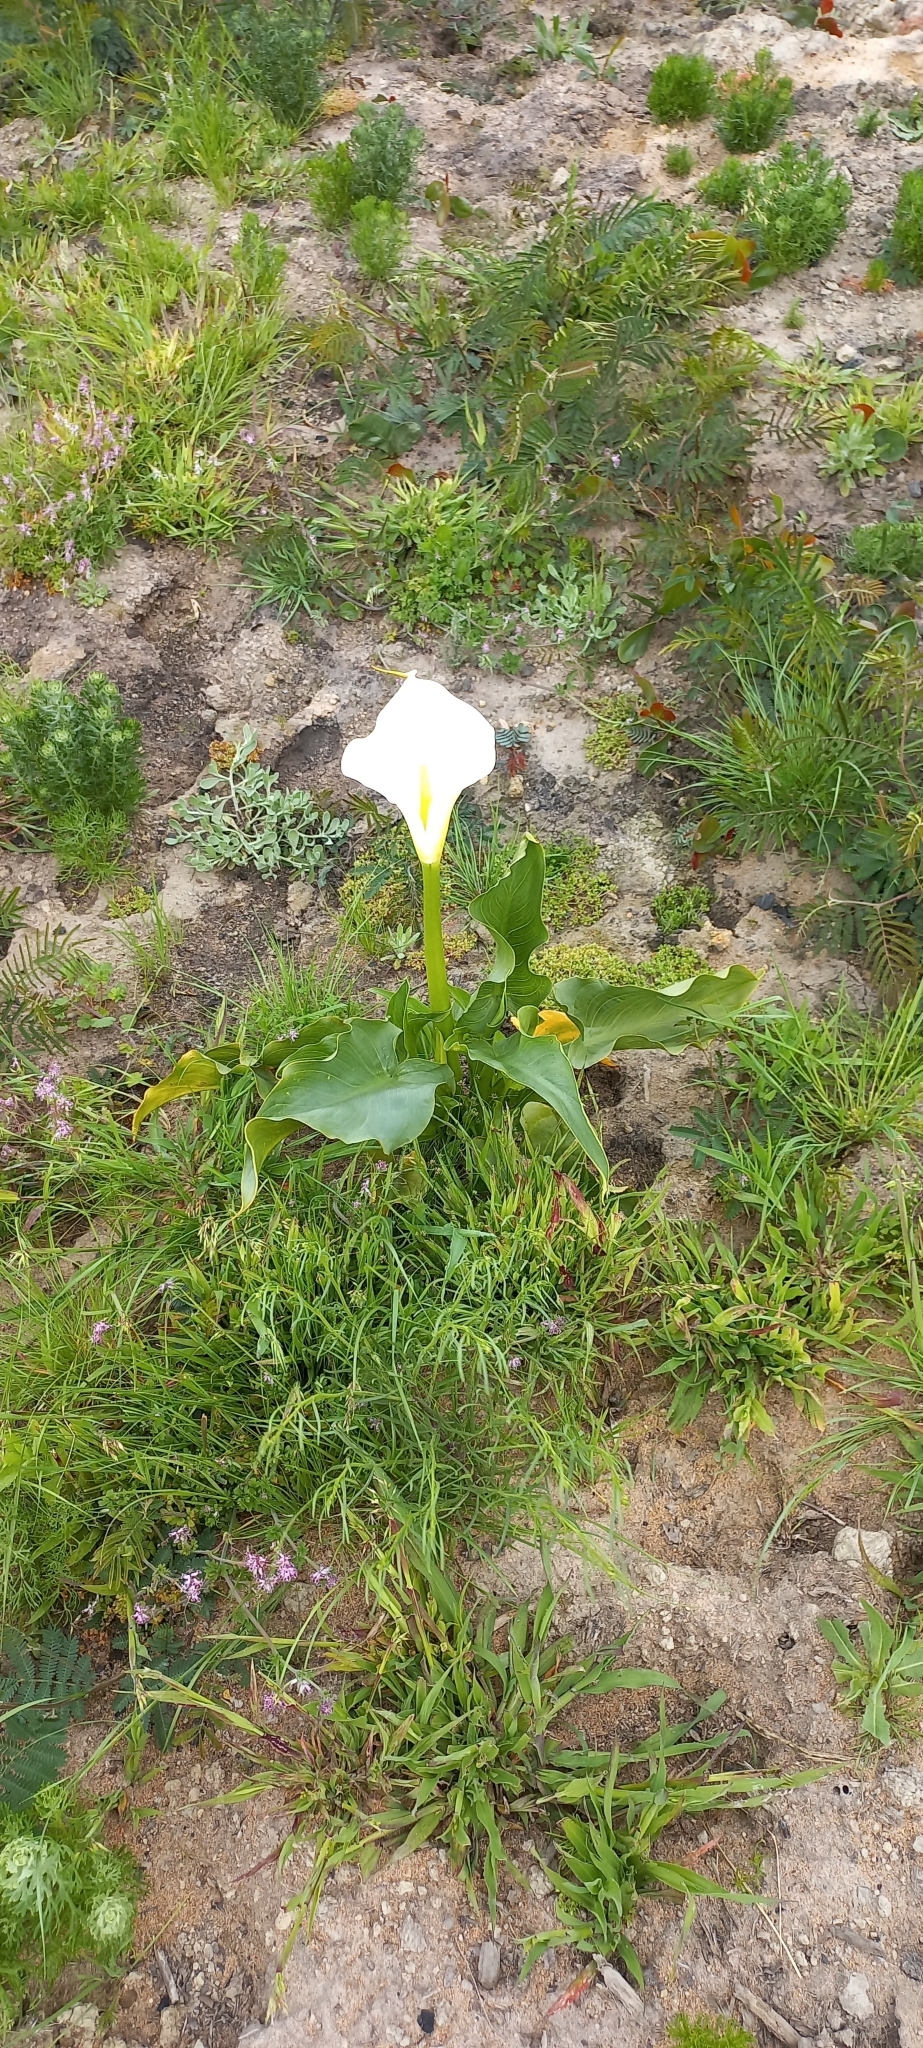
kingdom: Plantae
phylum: Tracheophyta
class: Liliopsida
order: Alismatales
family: Araceae
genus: Zantedeschia
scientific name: Zantedeschia aethiopica
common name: Altar-lily
